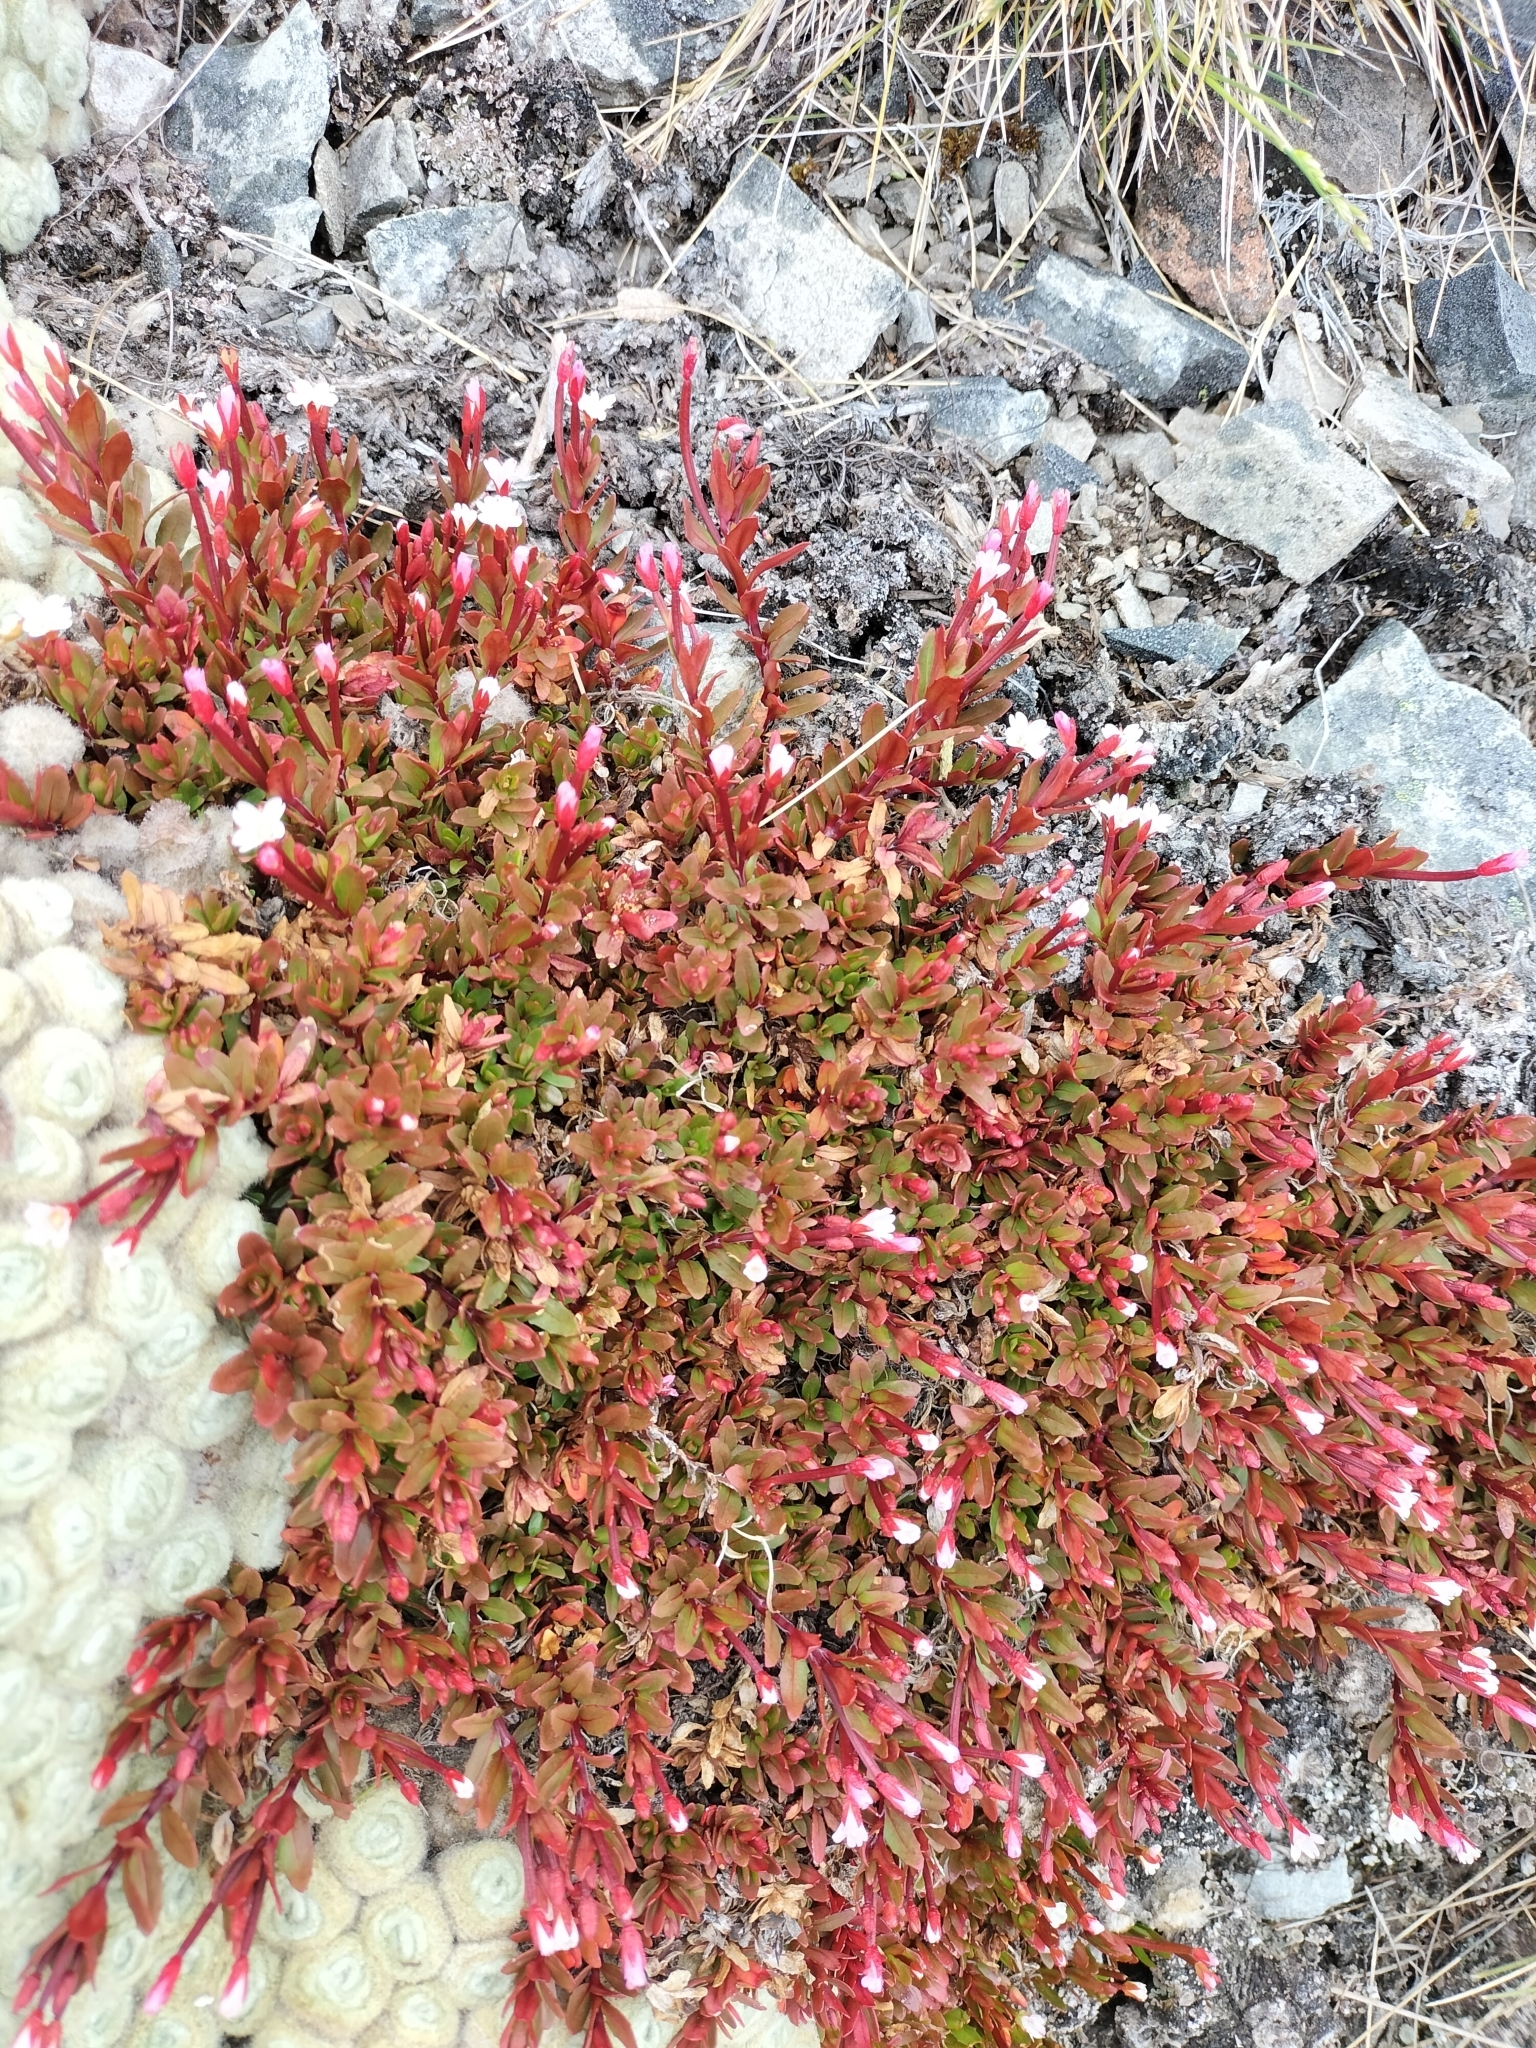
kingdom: Plantae
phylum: Tracheophyta
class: Magnoliopsida
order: Myrtales
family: Onagraceae
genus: Epilobium
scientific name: Epilobium porphyrium
